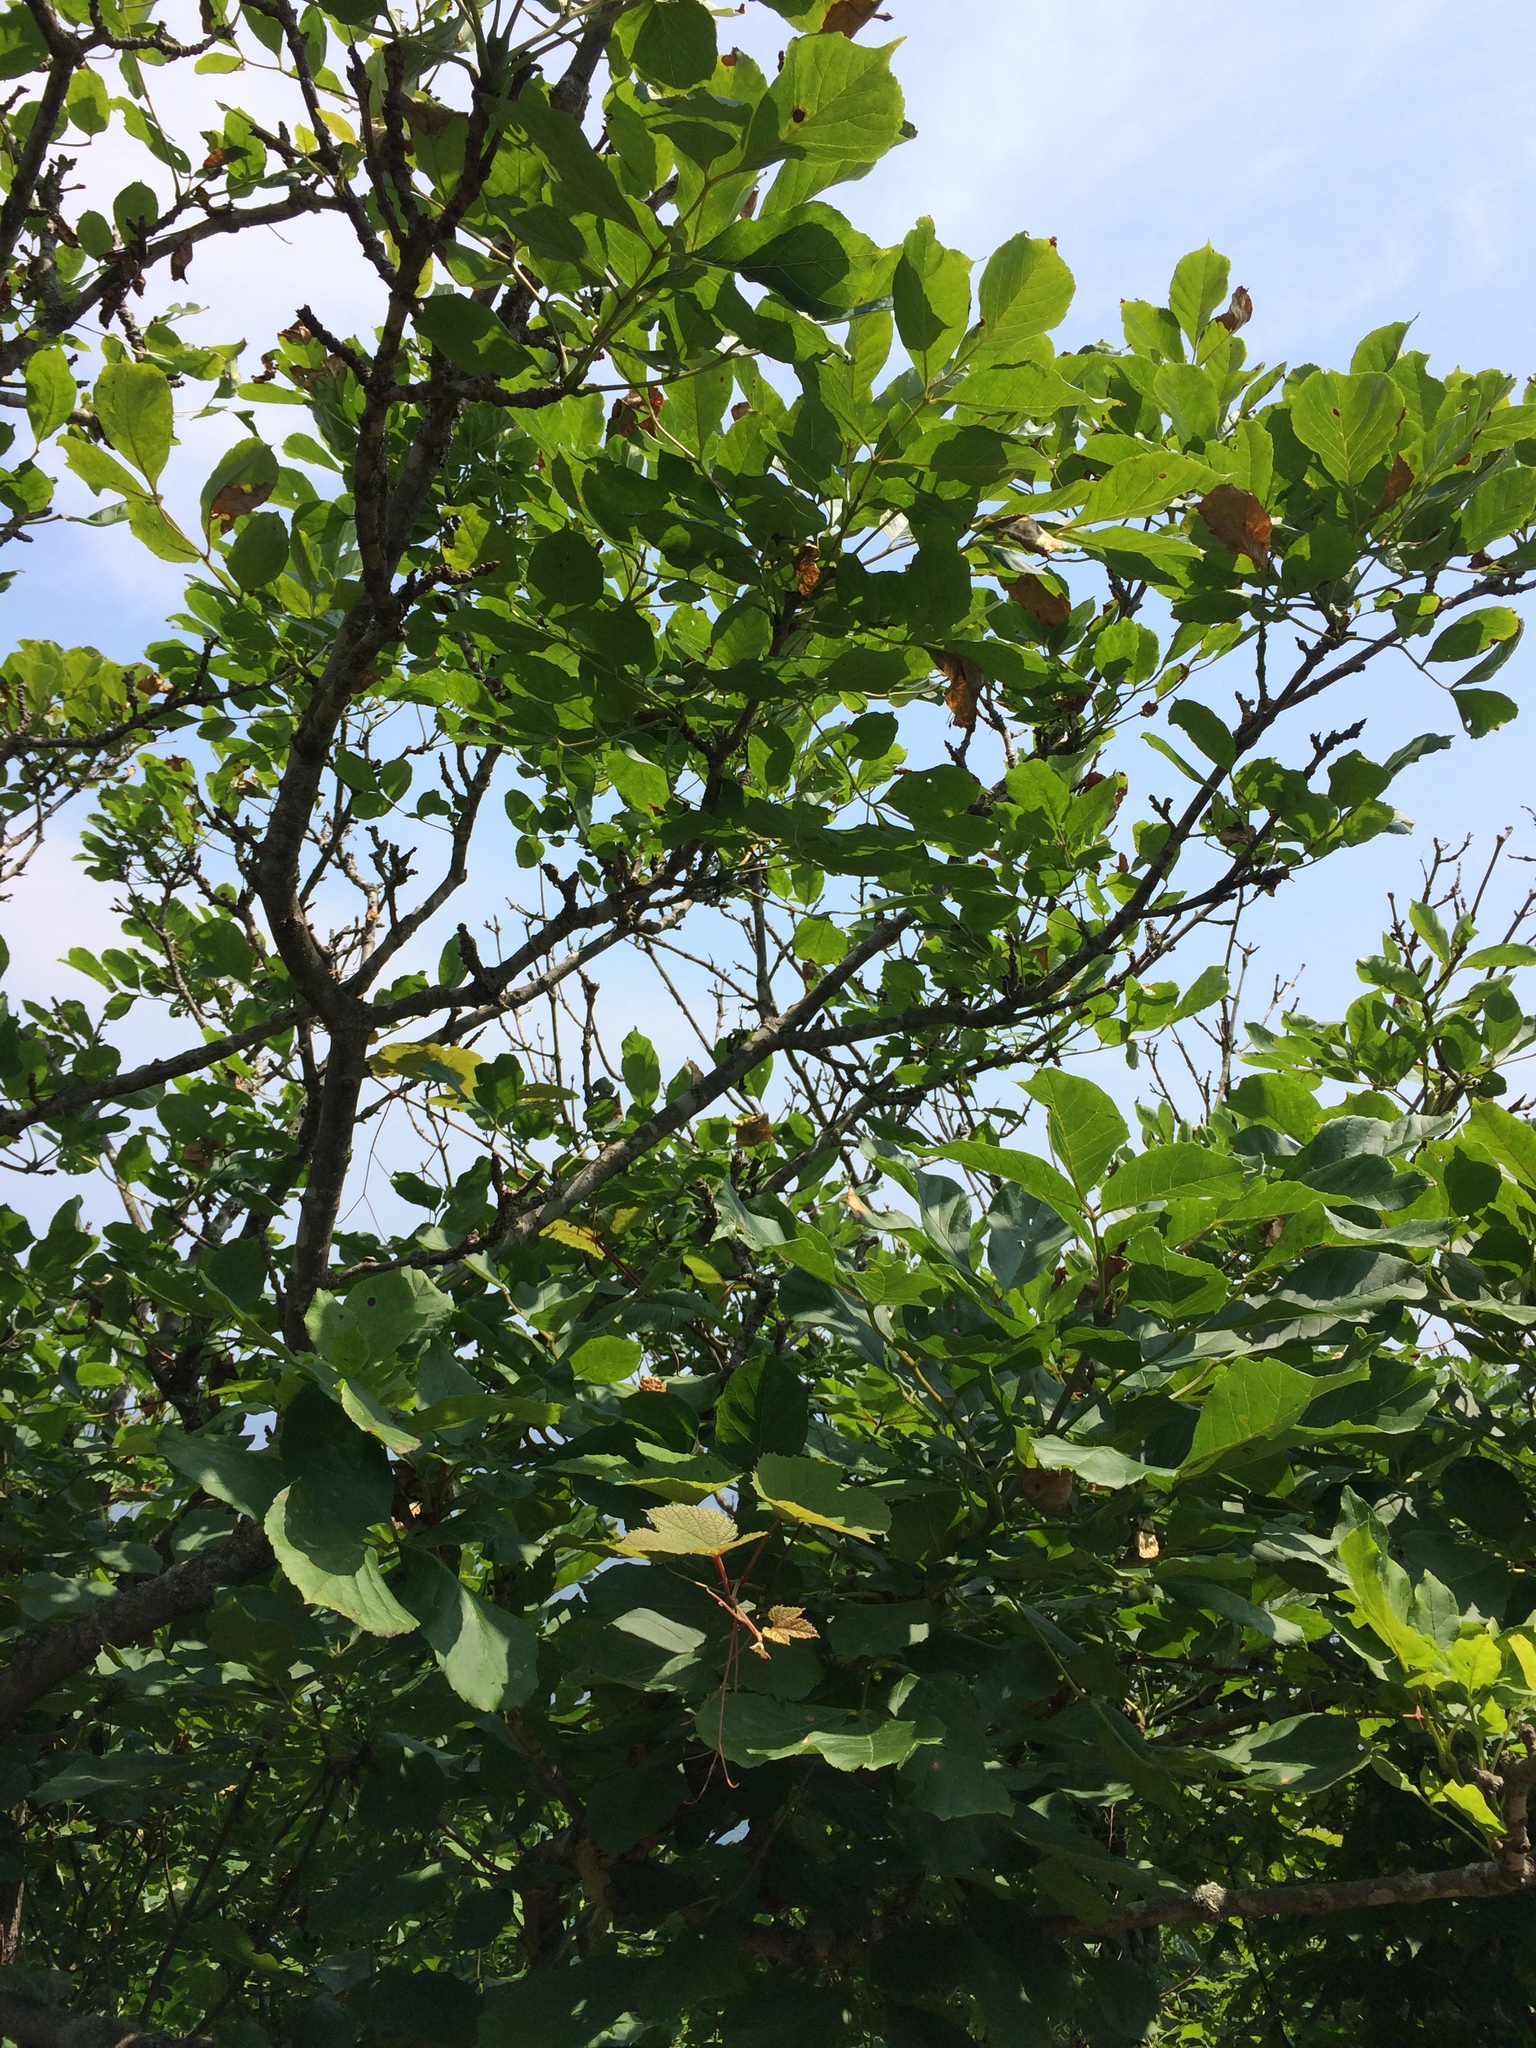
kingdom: Plantae
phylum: Tracheophyta
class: Magnoliopsida
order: Lamiales
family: Oleaceae
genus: Fraxinus
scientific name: Fraxinus chinensis
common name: Chinese ash
